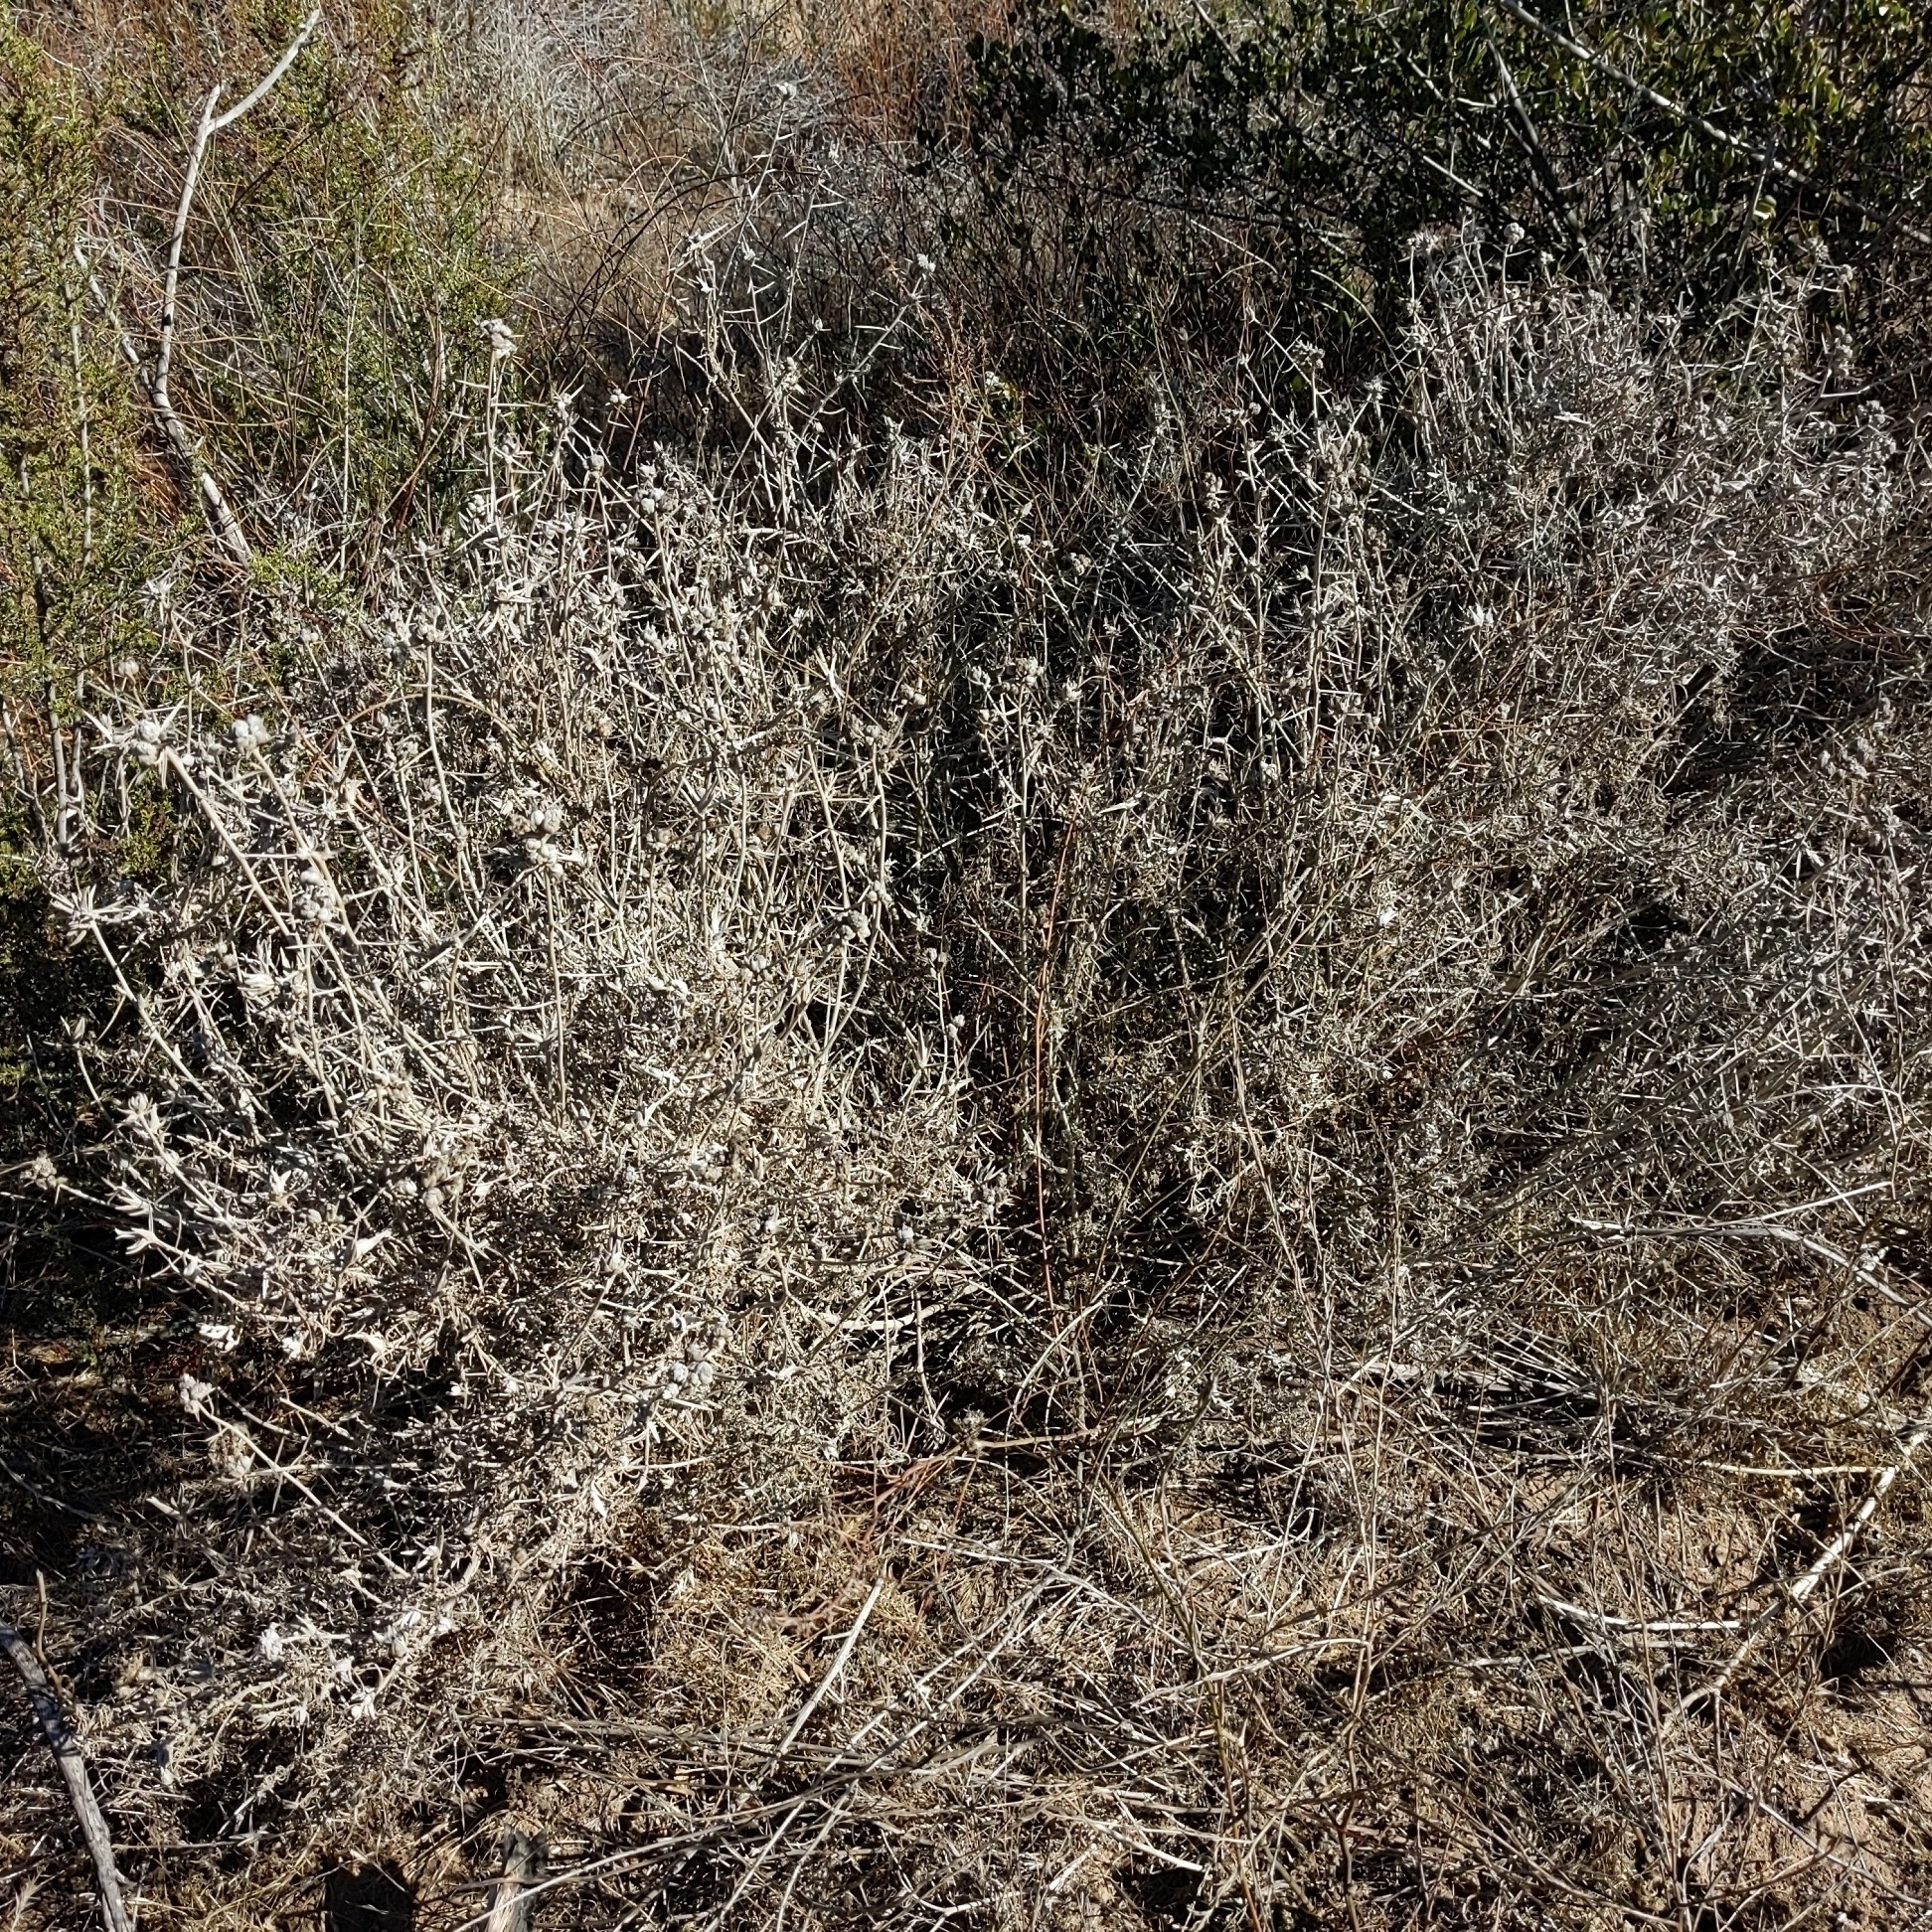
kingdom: Plantae
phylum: Tracheophyta
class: Magnoliopsida
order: Asterales
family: Asteraceae
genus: Tetradymia
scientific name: Tetradymia comosa
